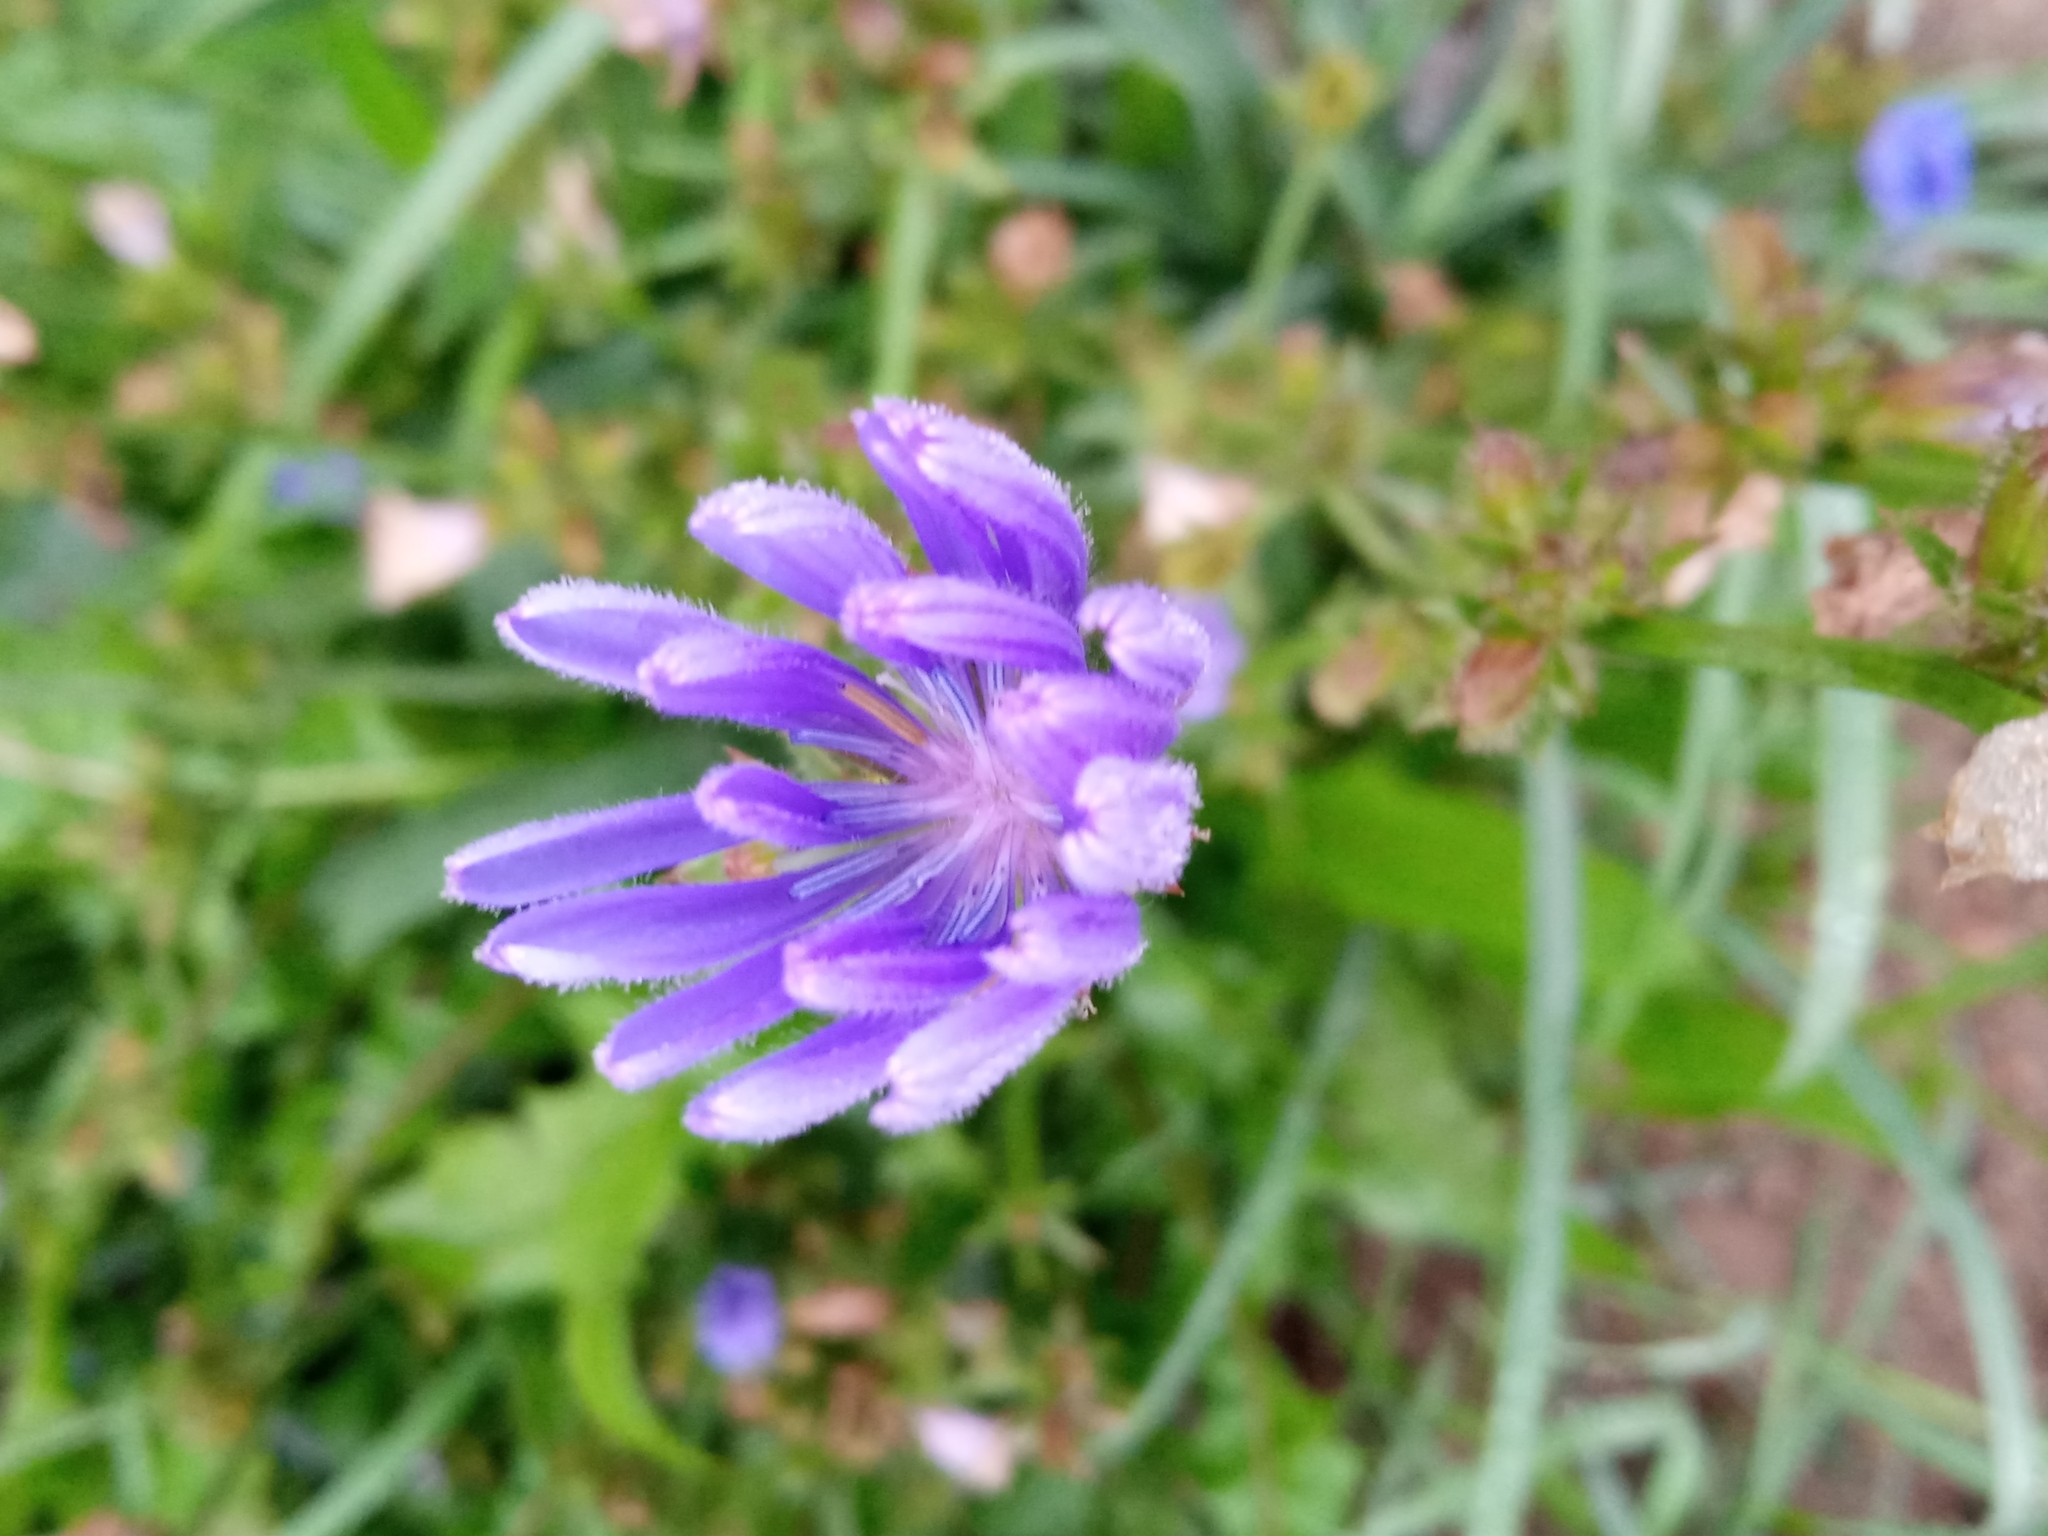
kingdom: Plantae
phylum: Tracheophyta
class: Magnoliopsida
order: Asterales
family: Asteraceae
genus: Cichorium
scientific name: Cichorium intybus
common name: Chicory
